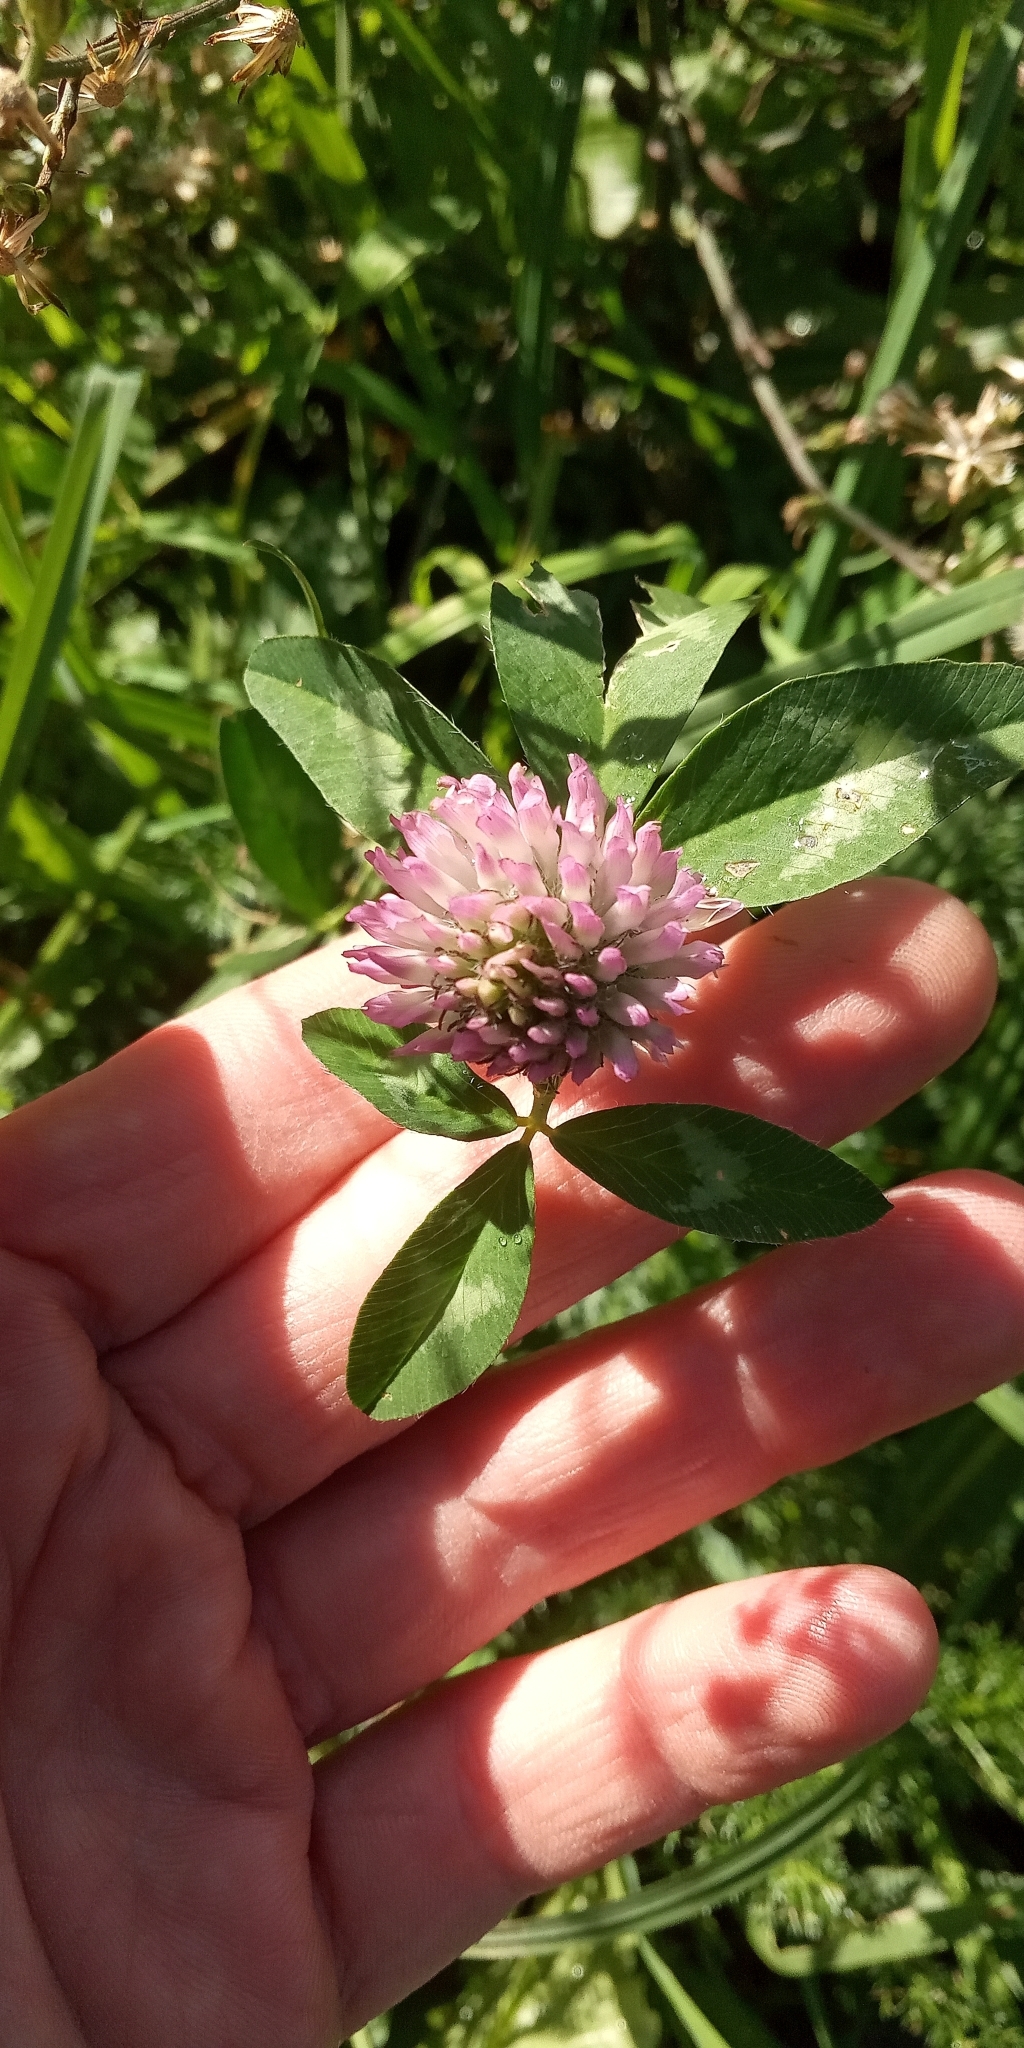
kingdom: Plantae
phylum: Tracheophyta
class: Magnoliopsida
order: Fabales
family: Fabaceae
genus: Trifolium
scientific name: Trifolium pratense
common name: Red clover
